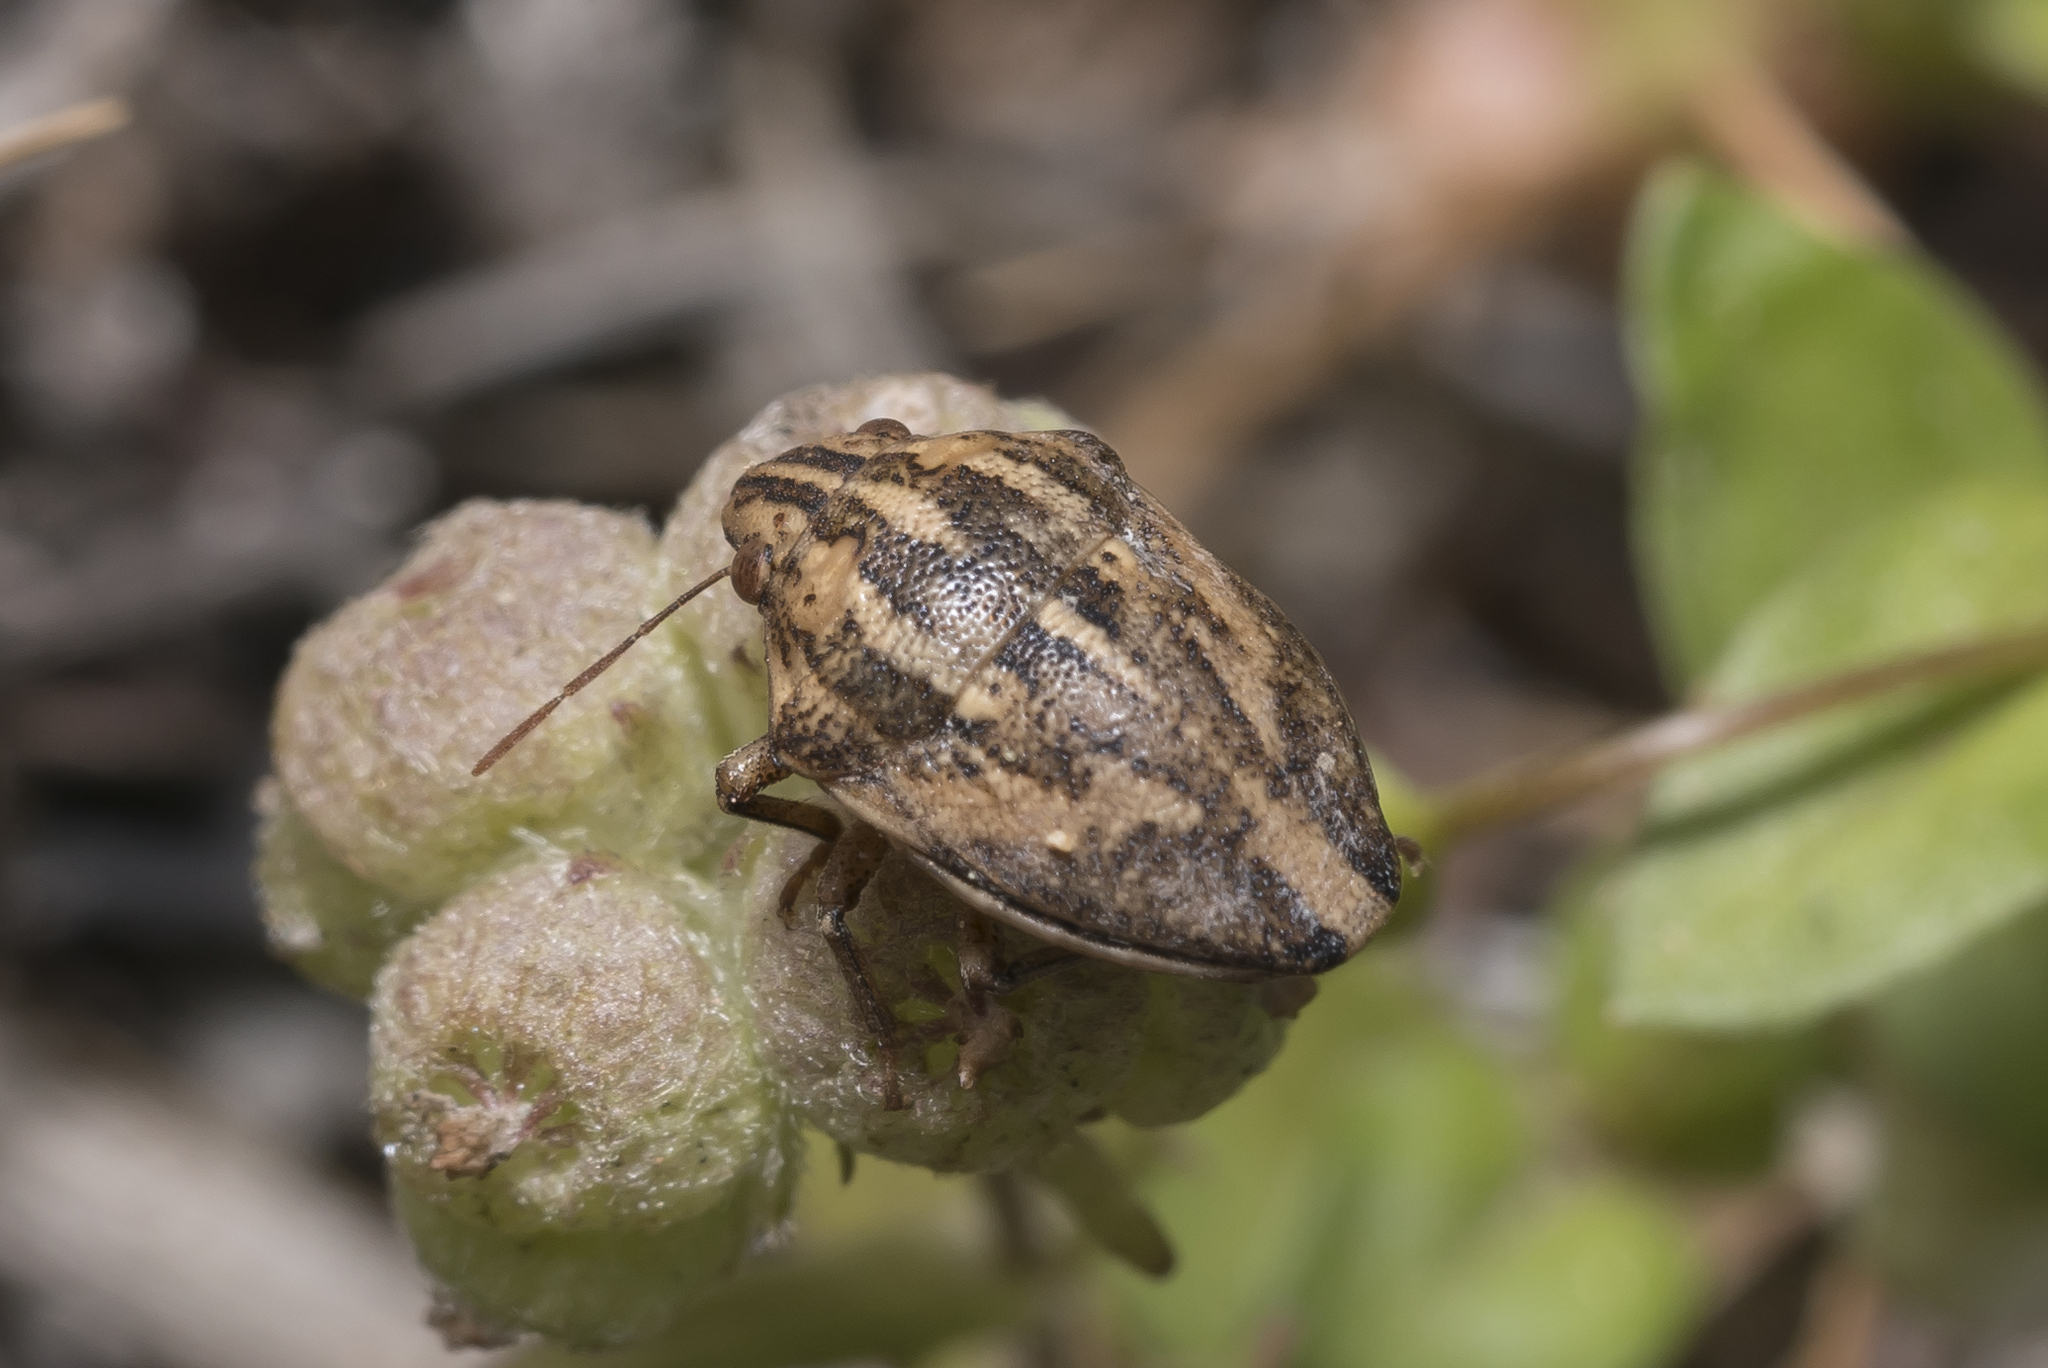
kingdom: Animalia
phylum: Arthropoda
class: Insecta
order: Hemiptera
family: Scutelleridae
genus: Odontotarsus
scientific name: Odontotarsus rufescens
